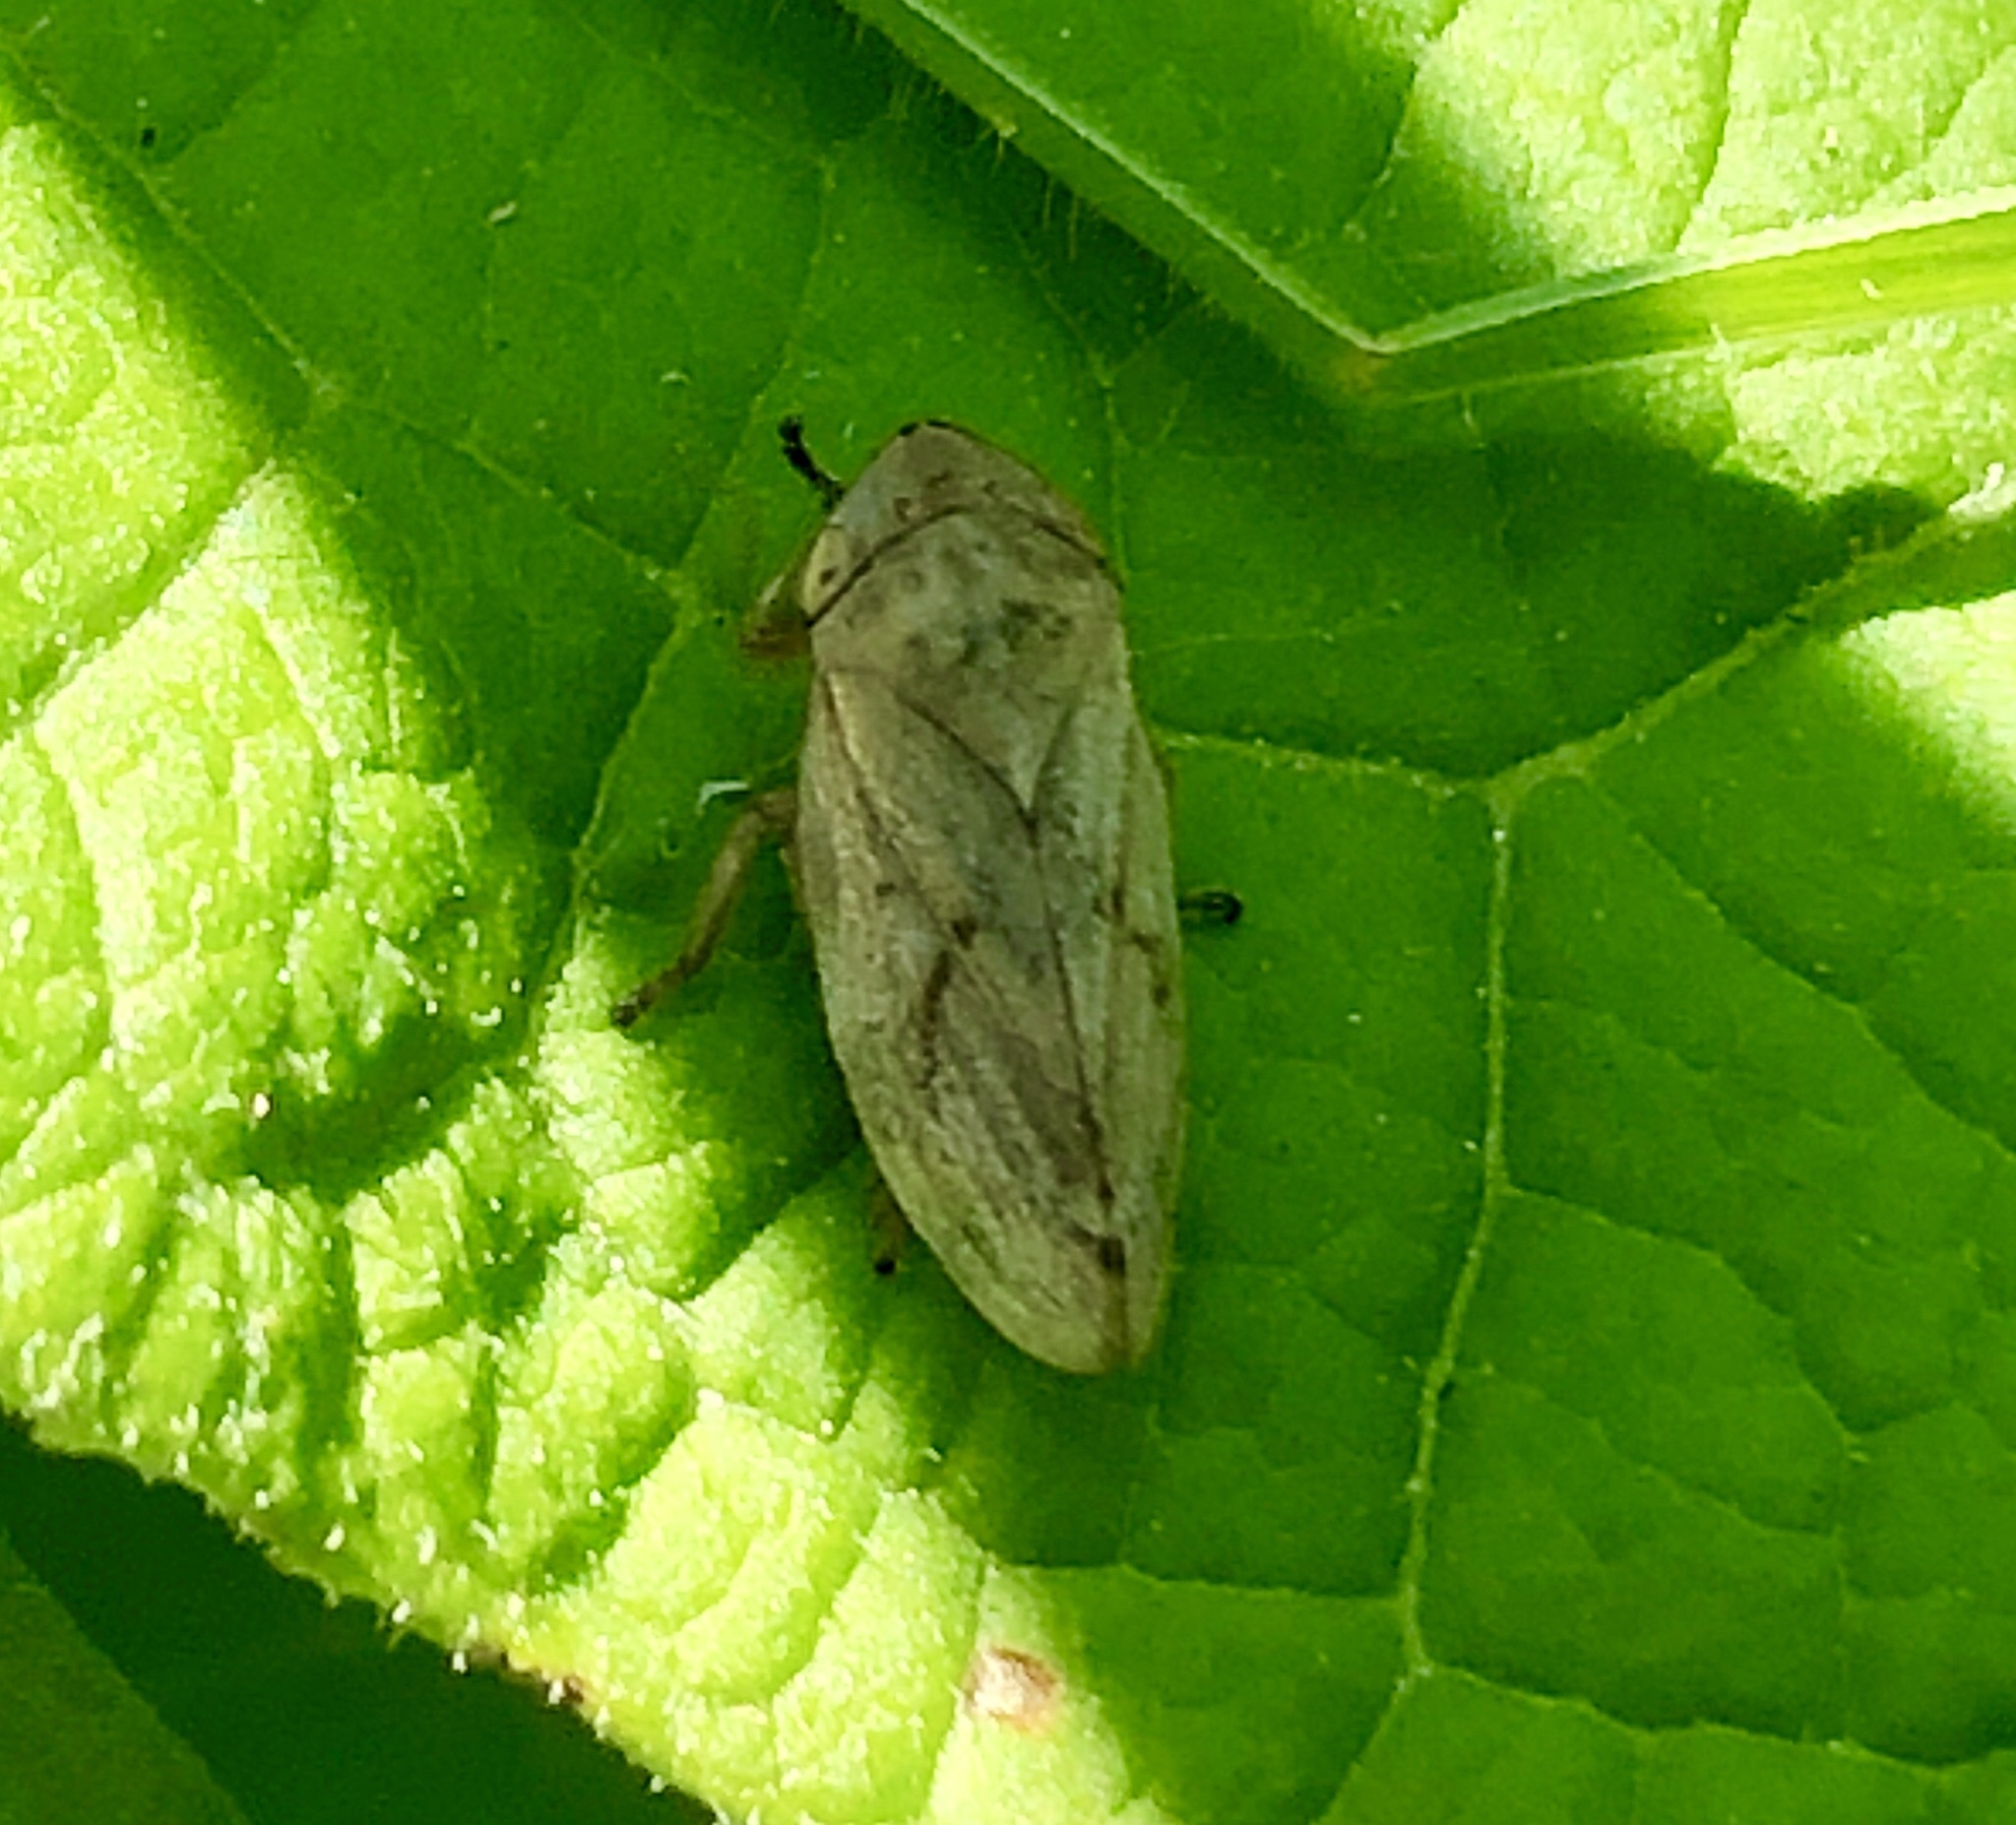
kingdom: Animalia
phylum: Arthropoda
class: Insecta
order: Hemiptera
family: Aphrophoridae
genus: Philaenus
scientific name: Philaenus spumarius
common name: Meadow spittlebug
